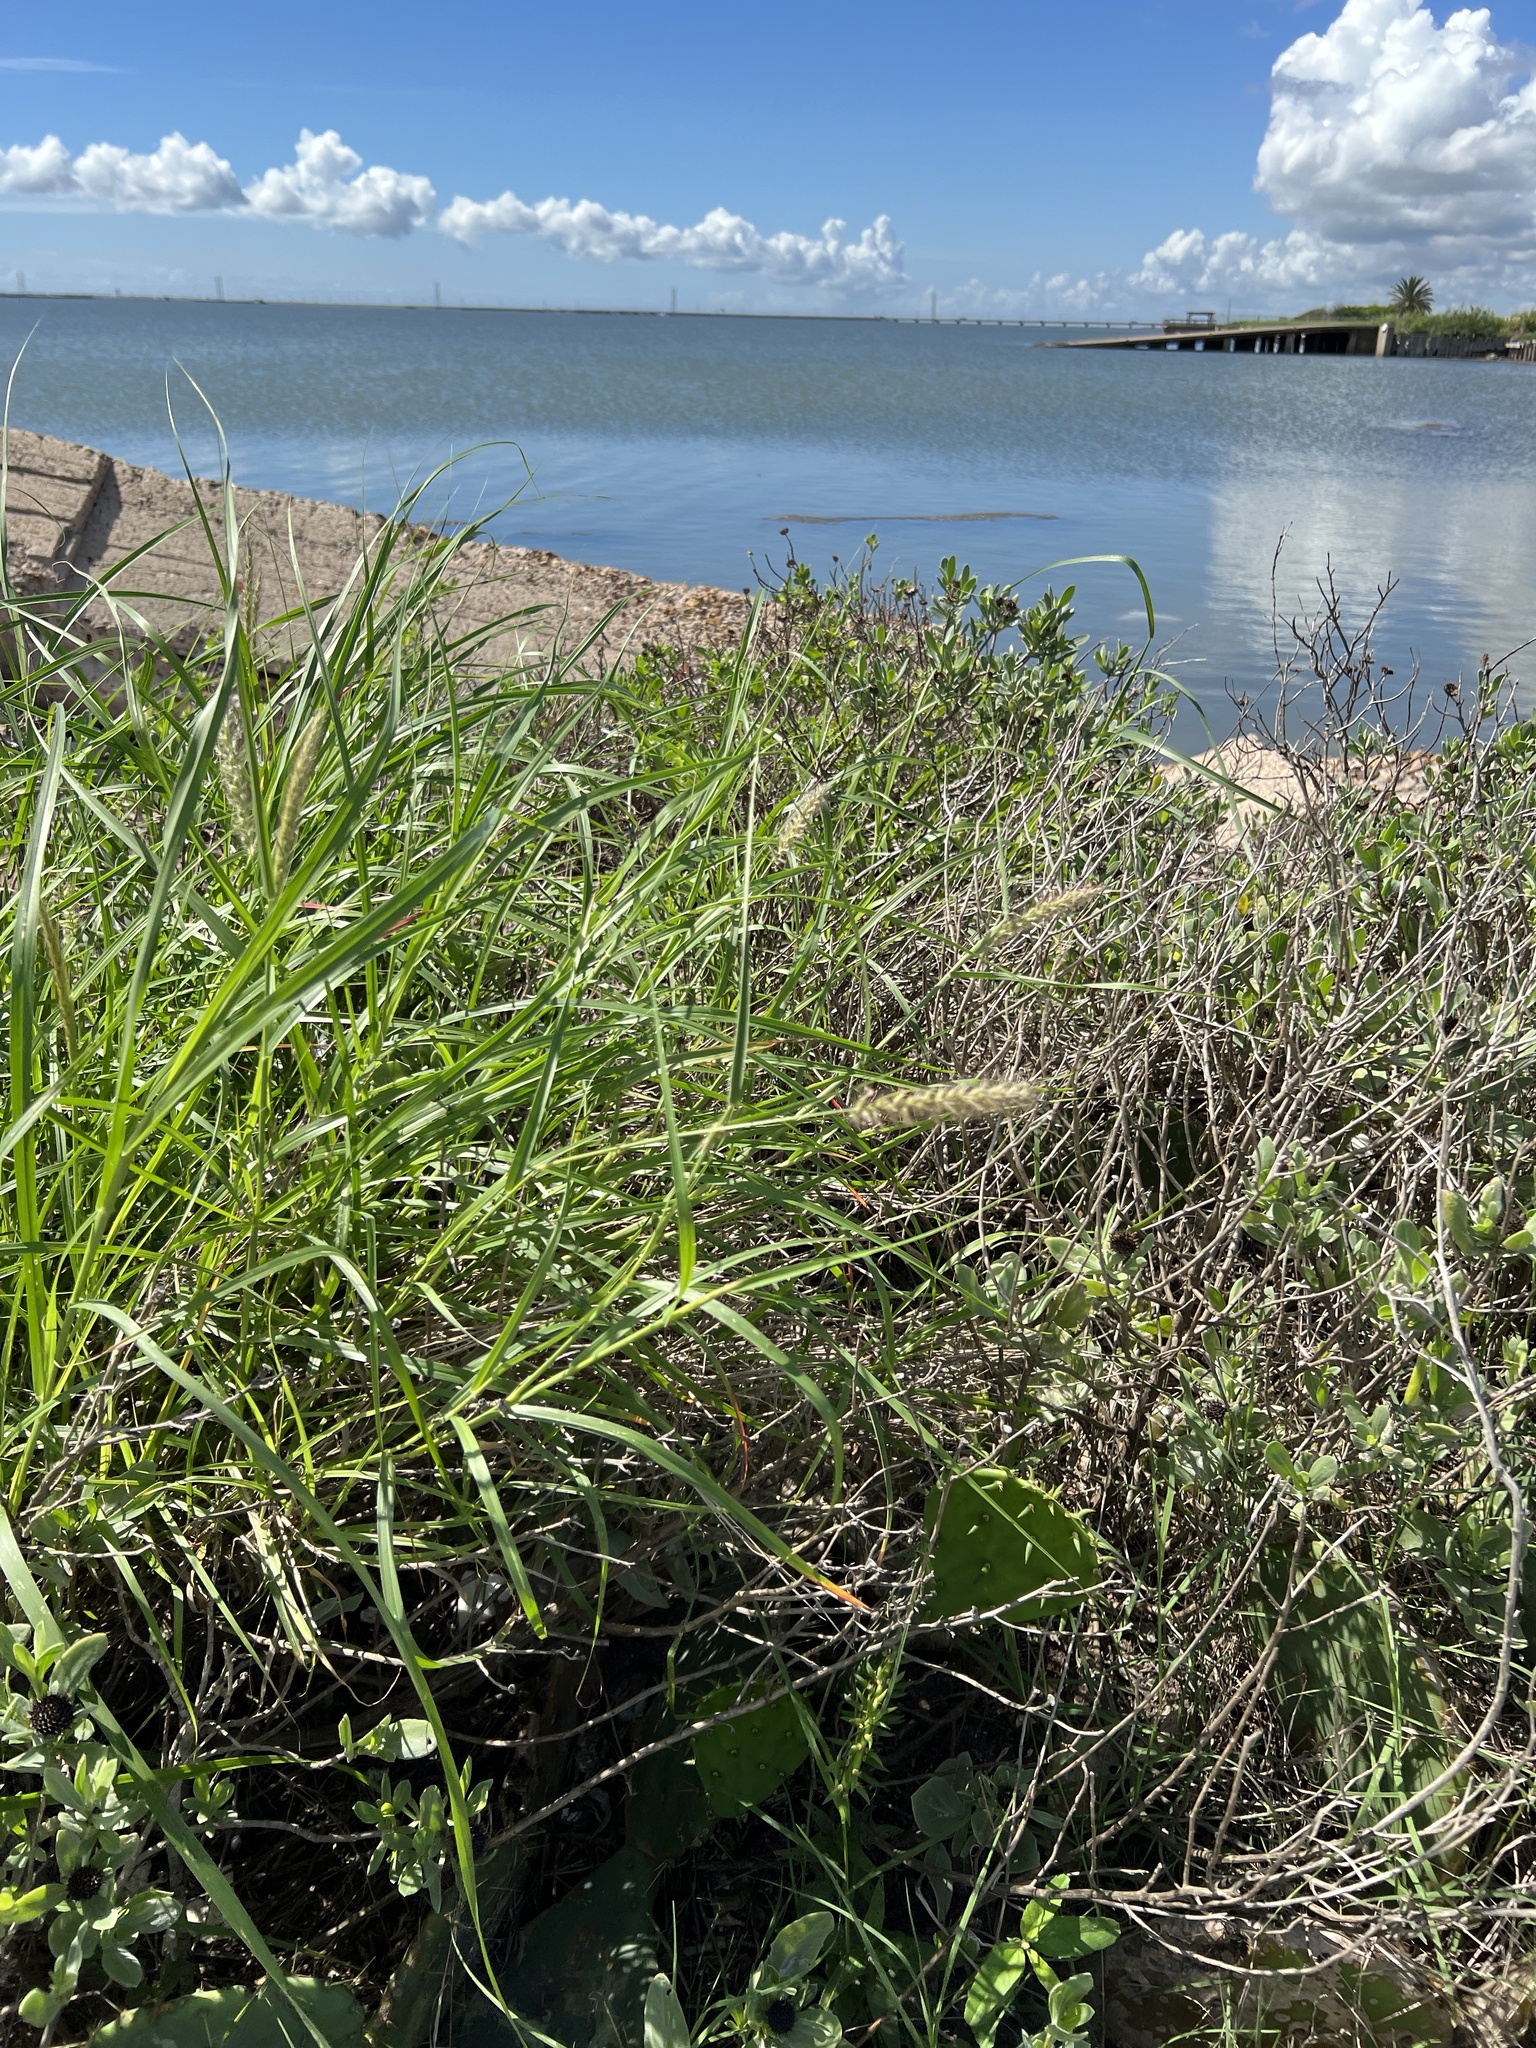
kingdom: Plantae
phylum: Tracheophyta
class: Liliopsida
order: Poales
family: Poaceae
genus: Cenchrus
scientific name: Cenchrus ciliaris
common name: Buffelgrass
